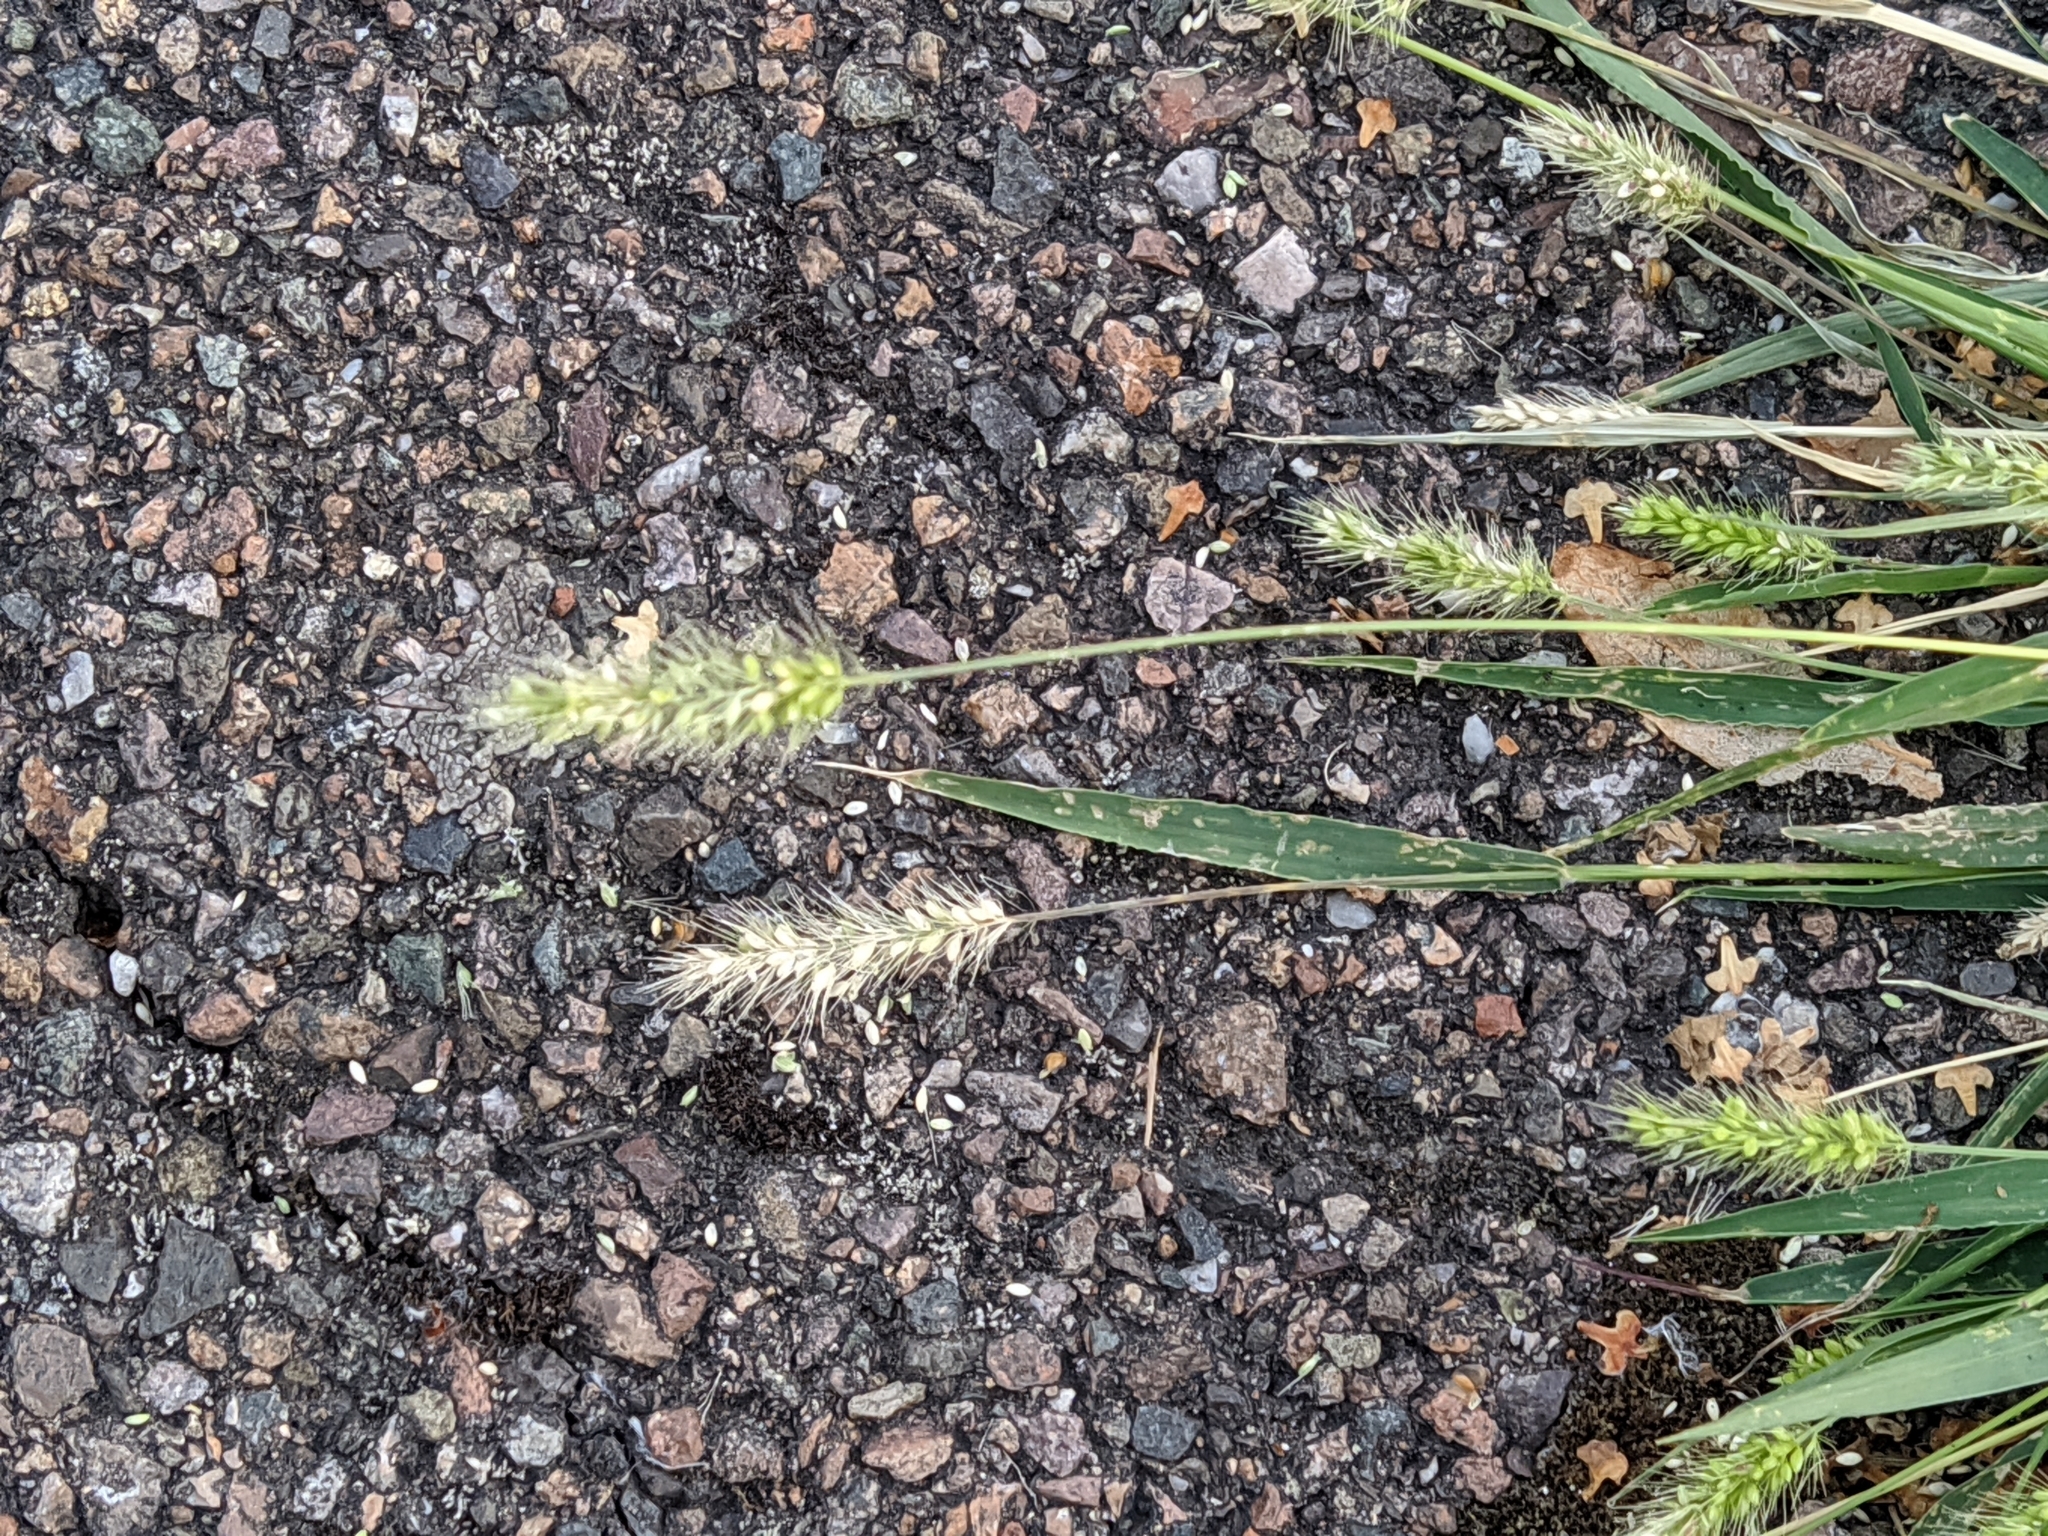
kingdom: Plantae
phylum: Tracheophyta
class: Liliopsida
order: Poales
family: Poaceae
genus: Setaria
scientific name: Setaria viridis
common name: Green bristlegrass
